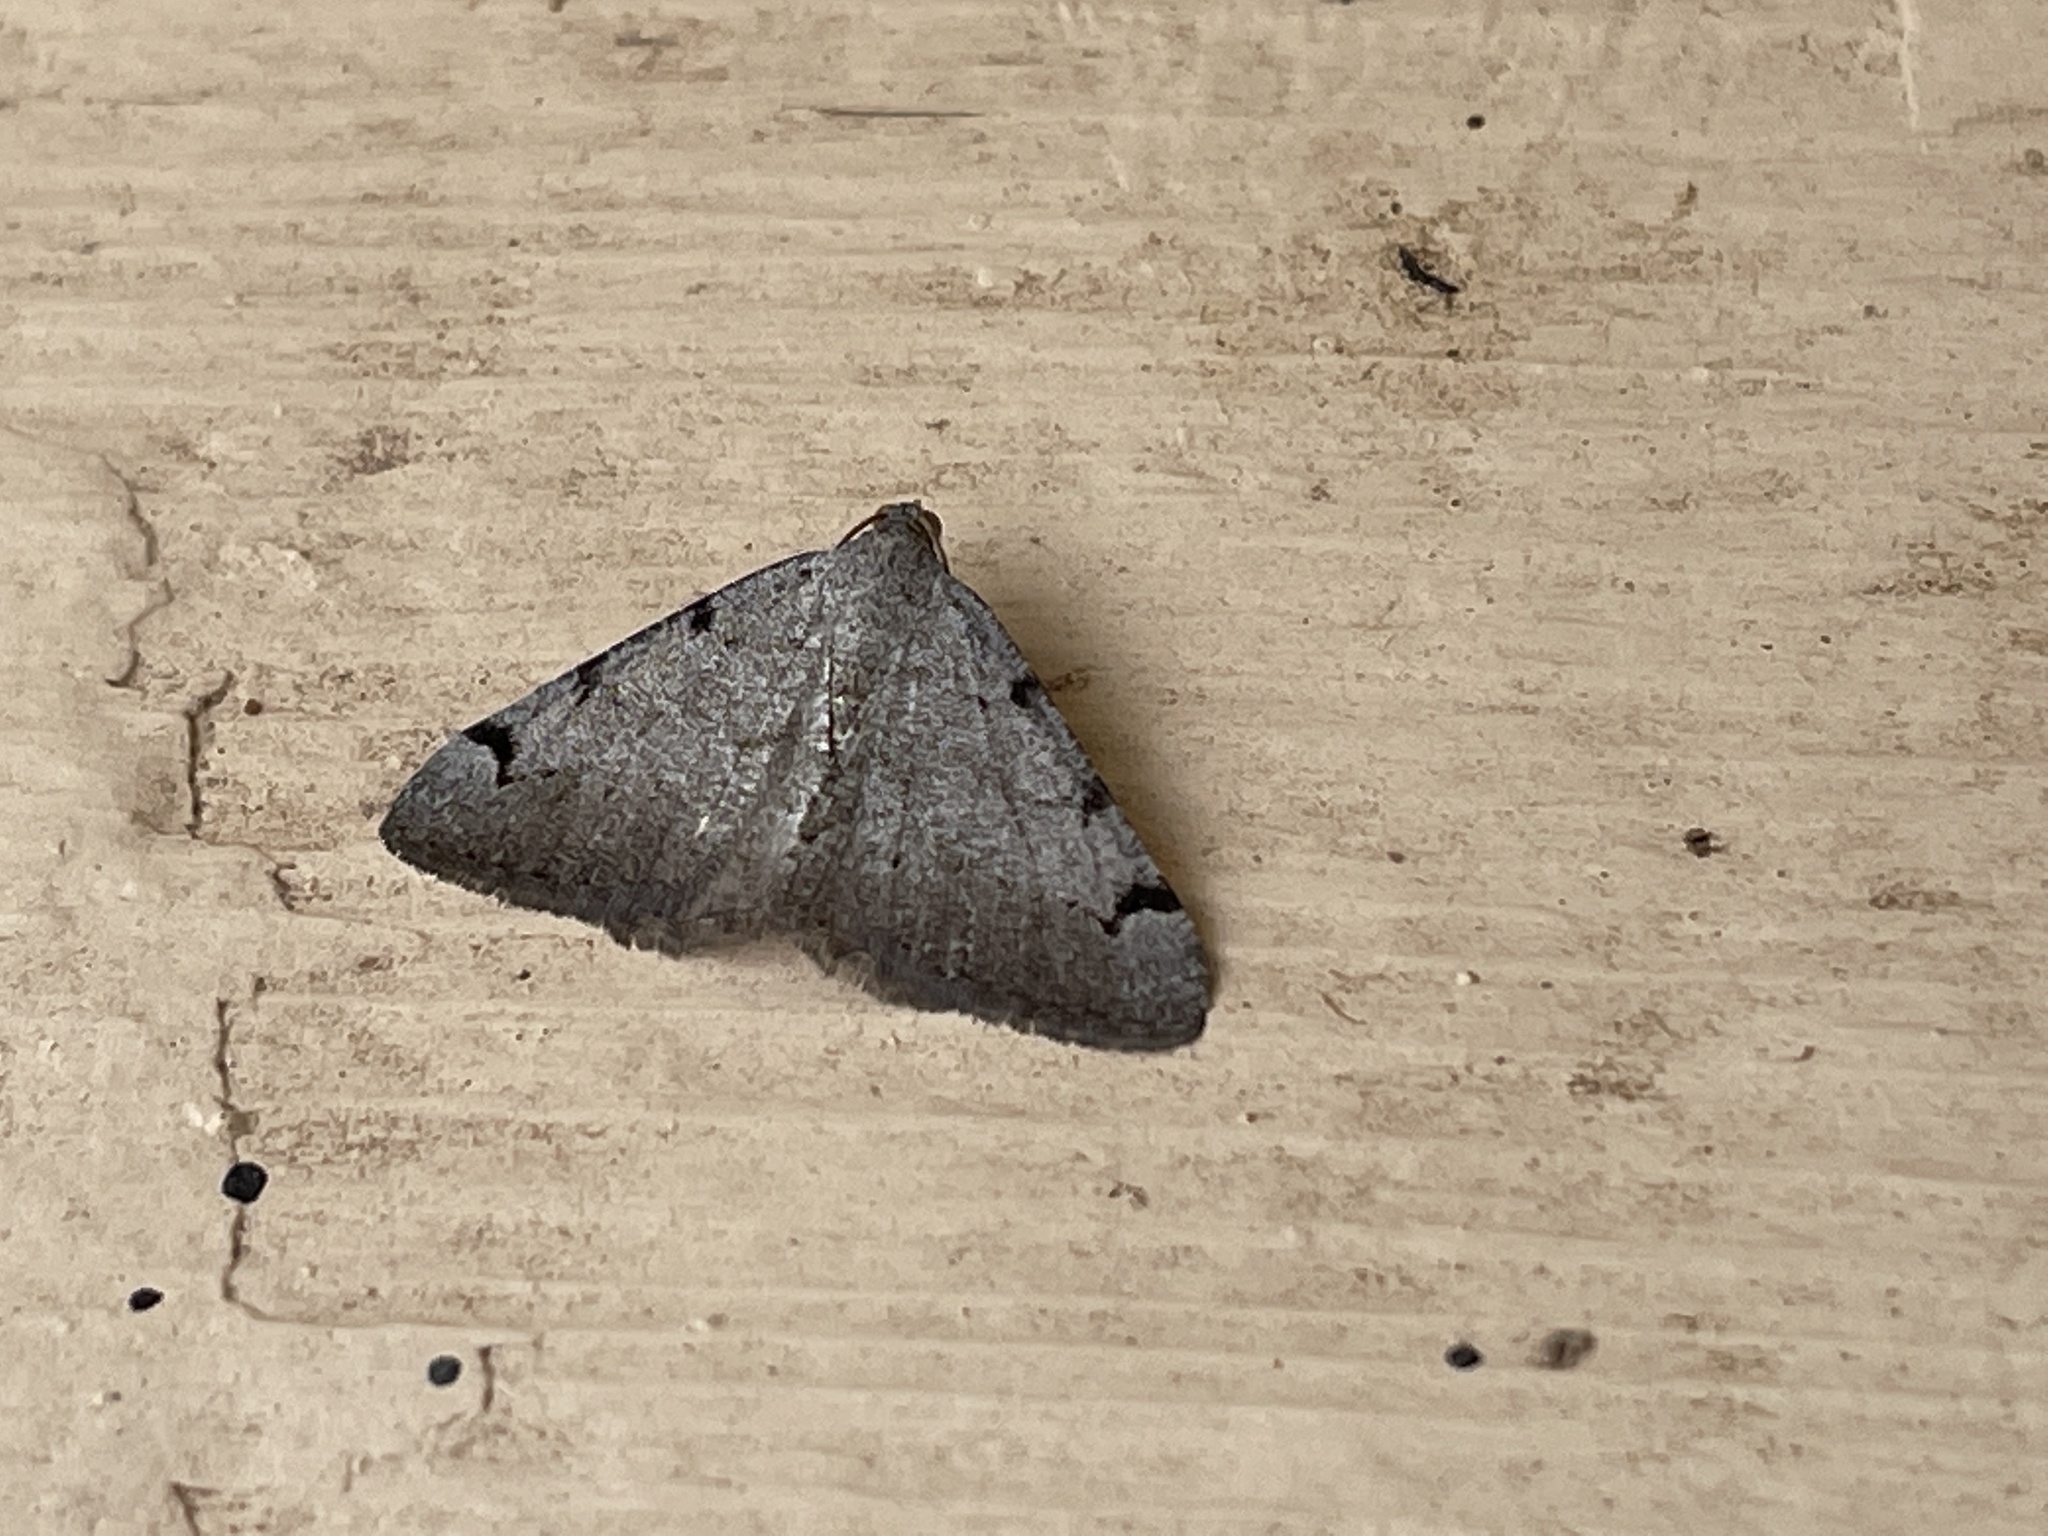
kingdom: Animalia
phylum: Arthropoda
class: Insecta
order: Lepidoptera
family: Geometridae
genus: Digrammia
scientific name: Digrammia triviata
